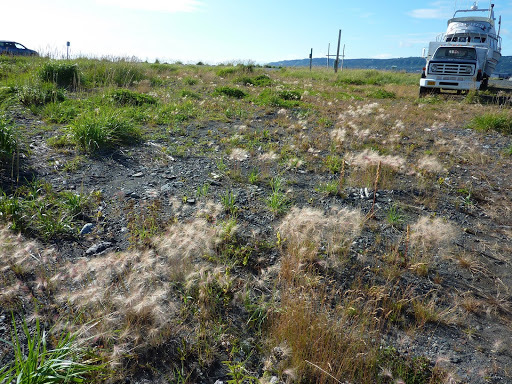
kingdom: Plantae
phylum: Tracheophyta
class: Liliopsida
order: Poales
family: Poaceae
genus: Hordeum
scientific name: Hordeum jubatum
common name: Foxtail barley
